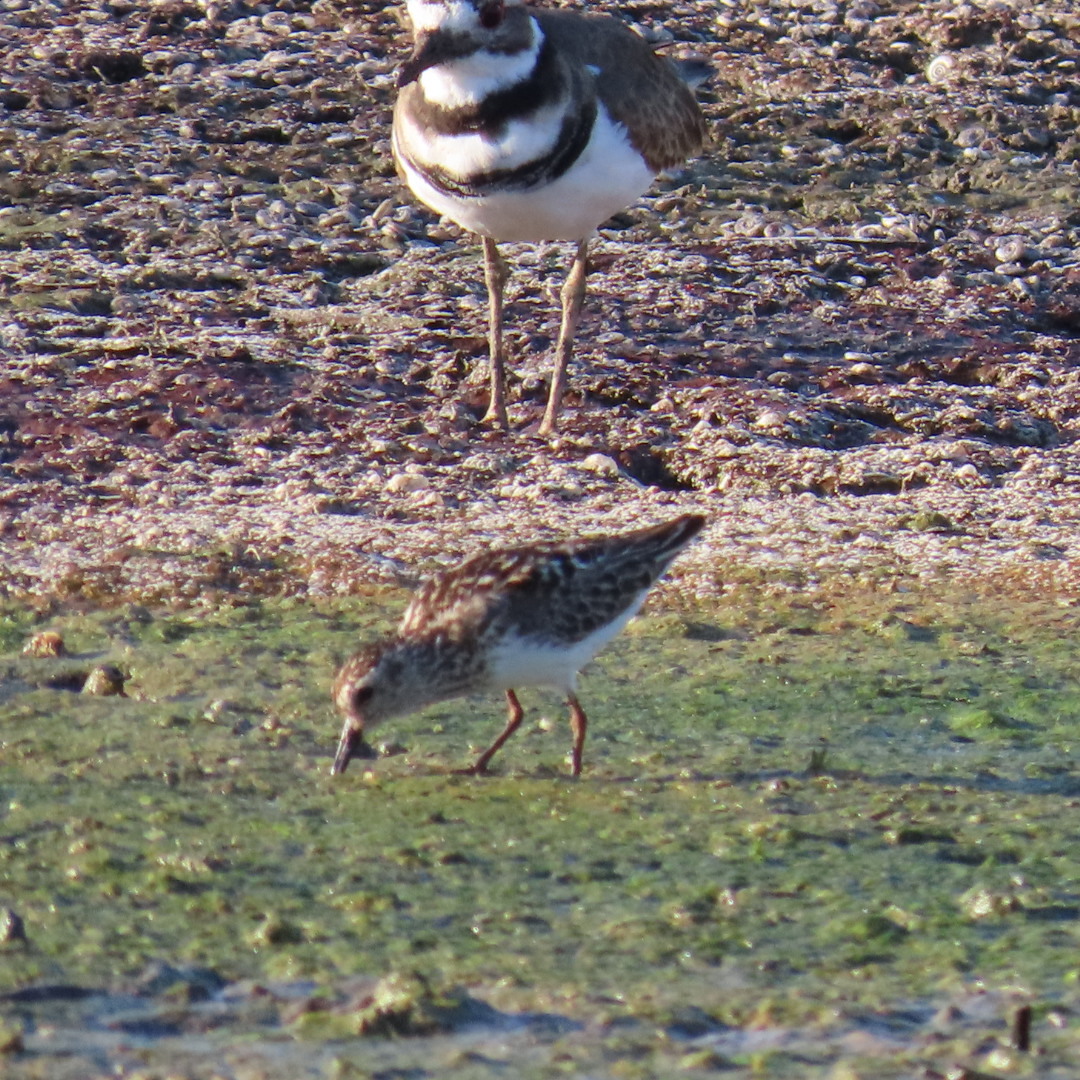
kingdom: Animalia
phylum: Chordata
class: Aves
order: Charadriiformes
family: Scolopacidae
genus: Calidris
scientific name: Calidris minutilla
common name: Least sandpiper
